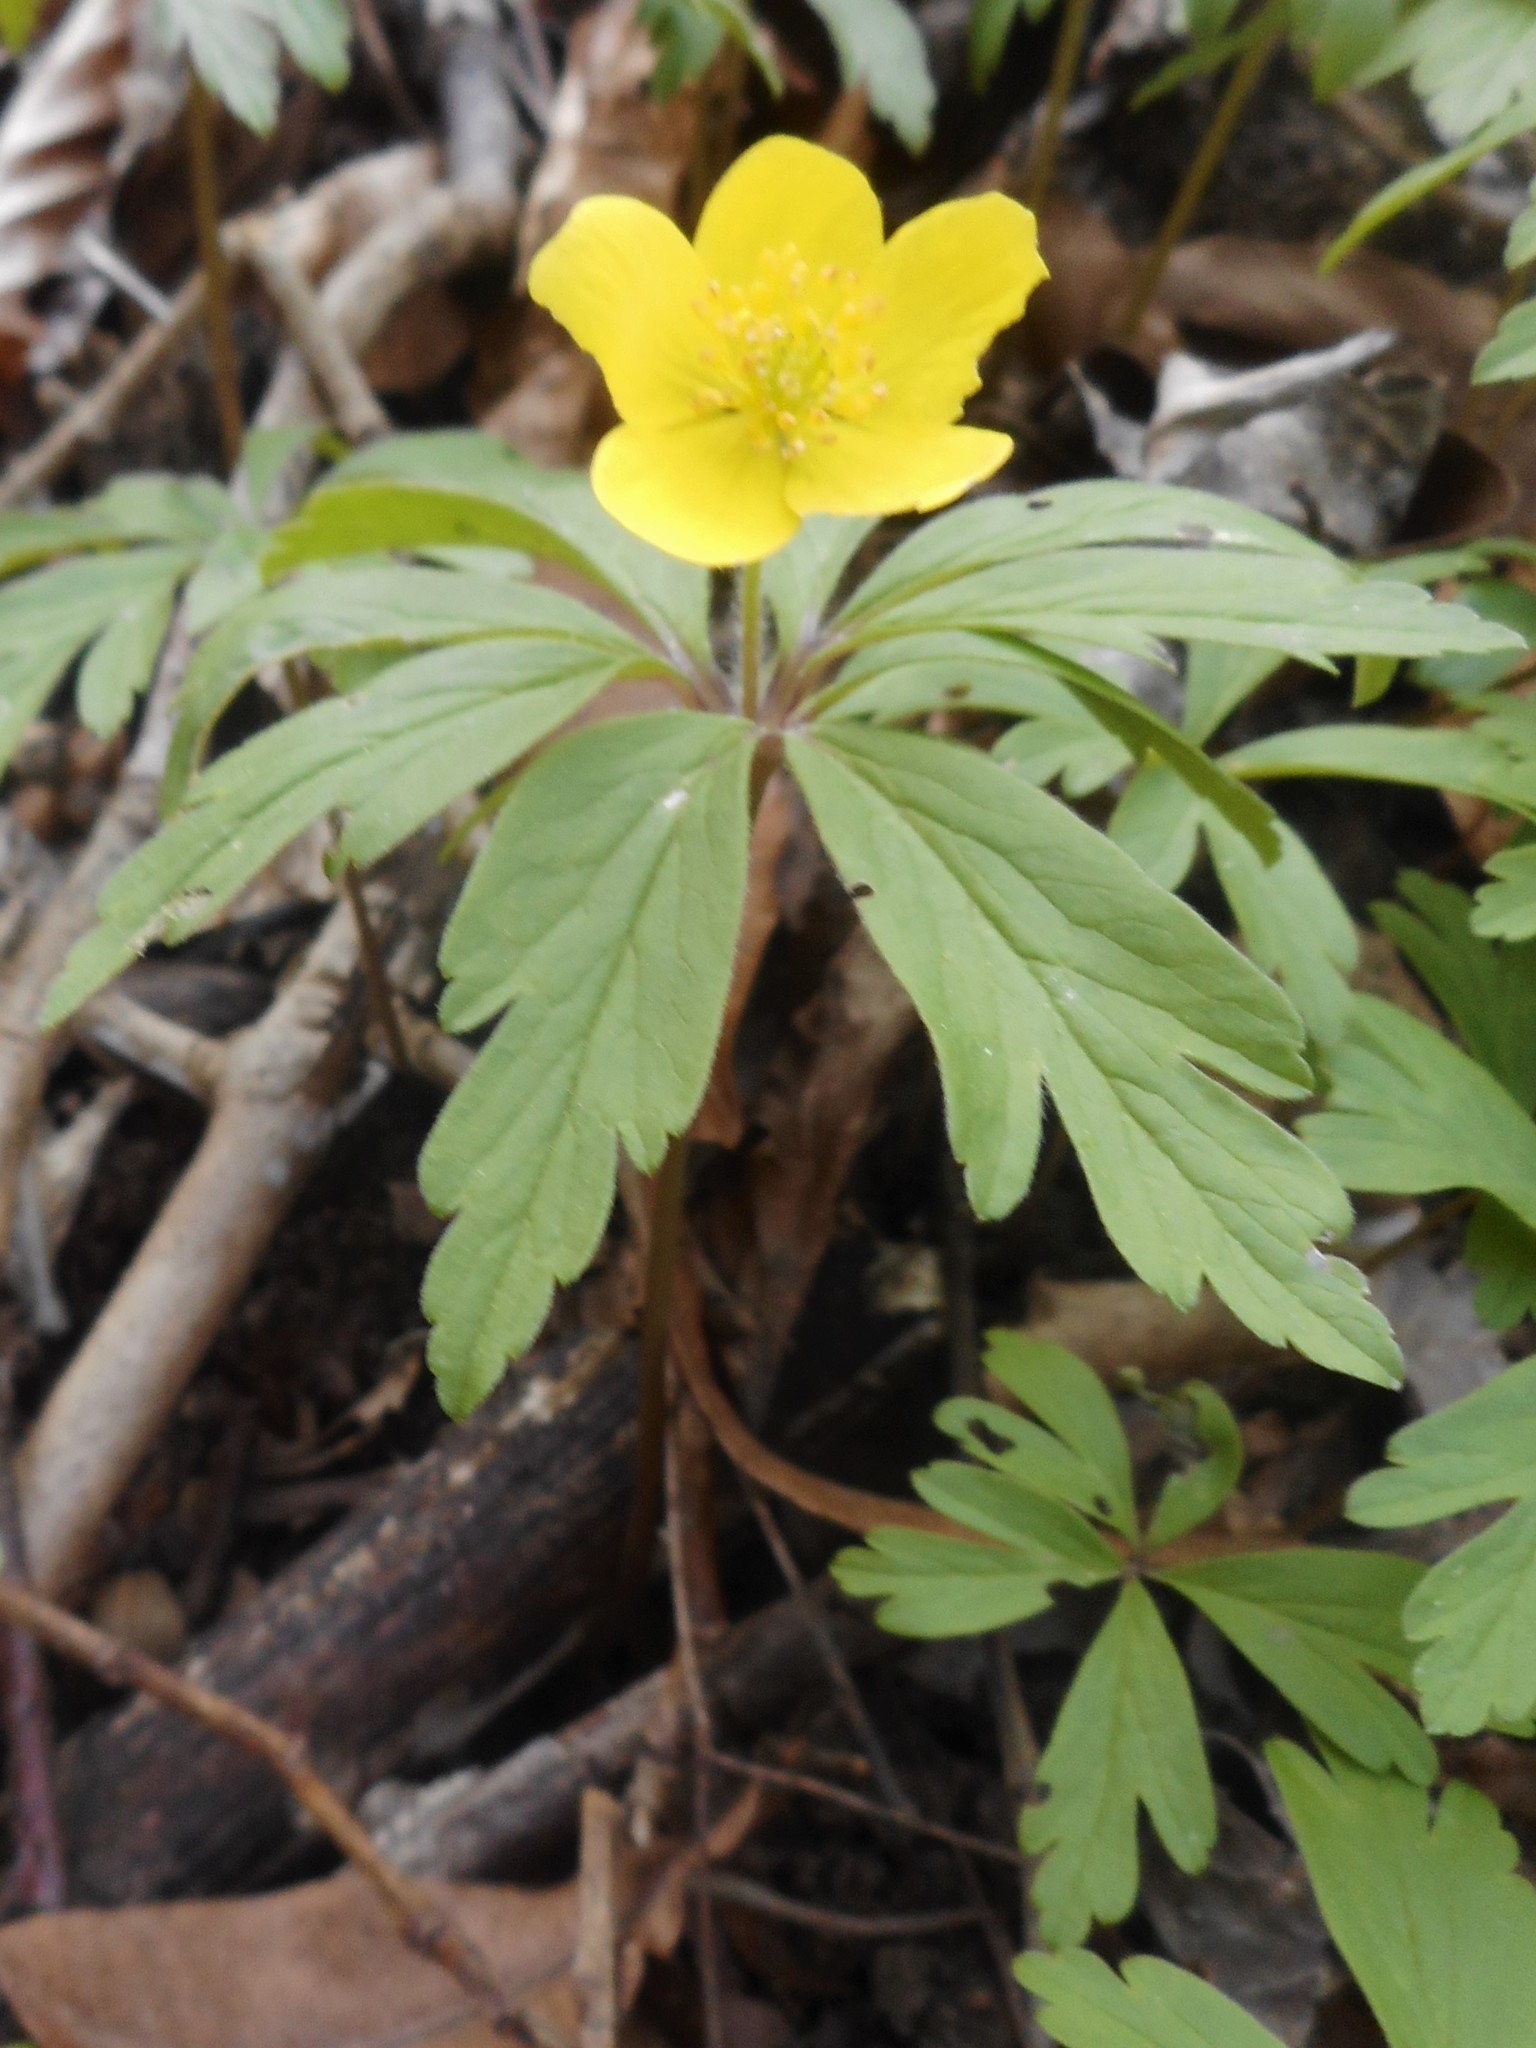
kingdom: Plantae
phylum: Tracheophyta
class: Magnoliopsida
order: Ranunculales
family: Ranunculaceae
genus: Anemone
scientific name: Anemone ranunculoides
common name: Yellow anemone
